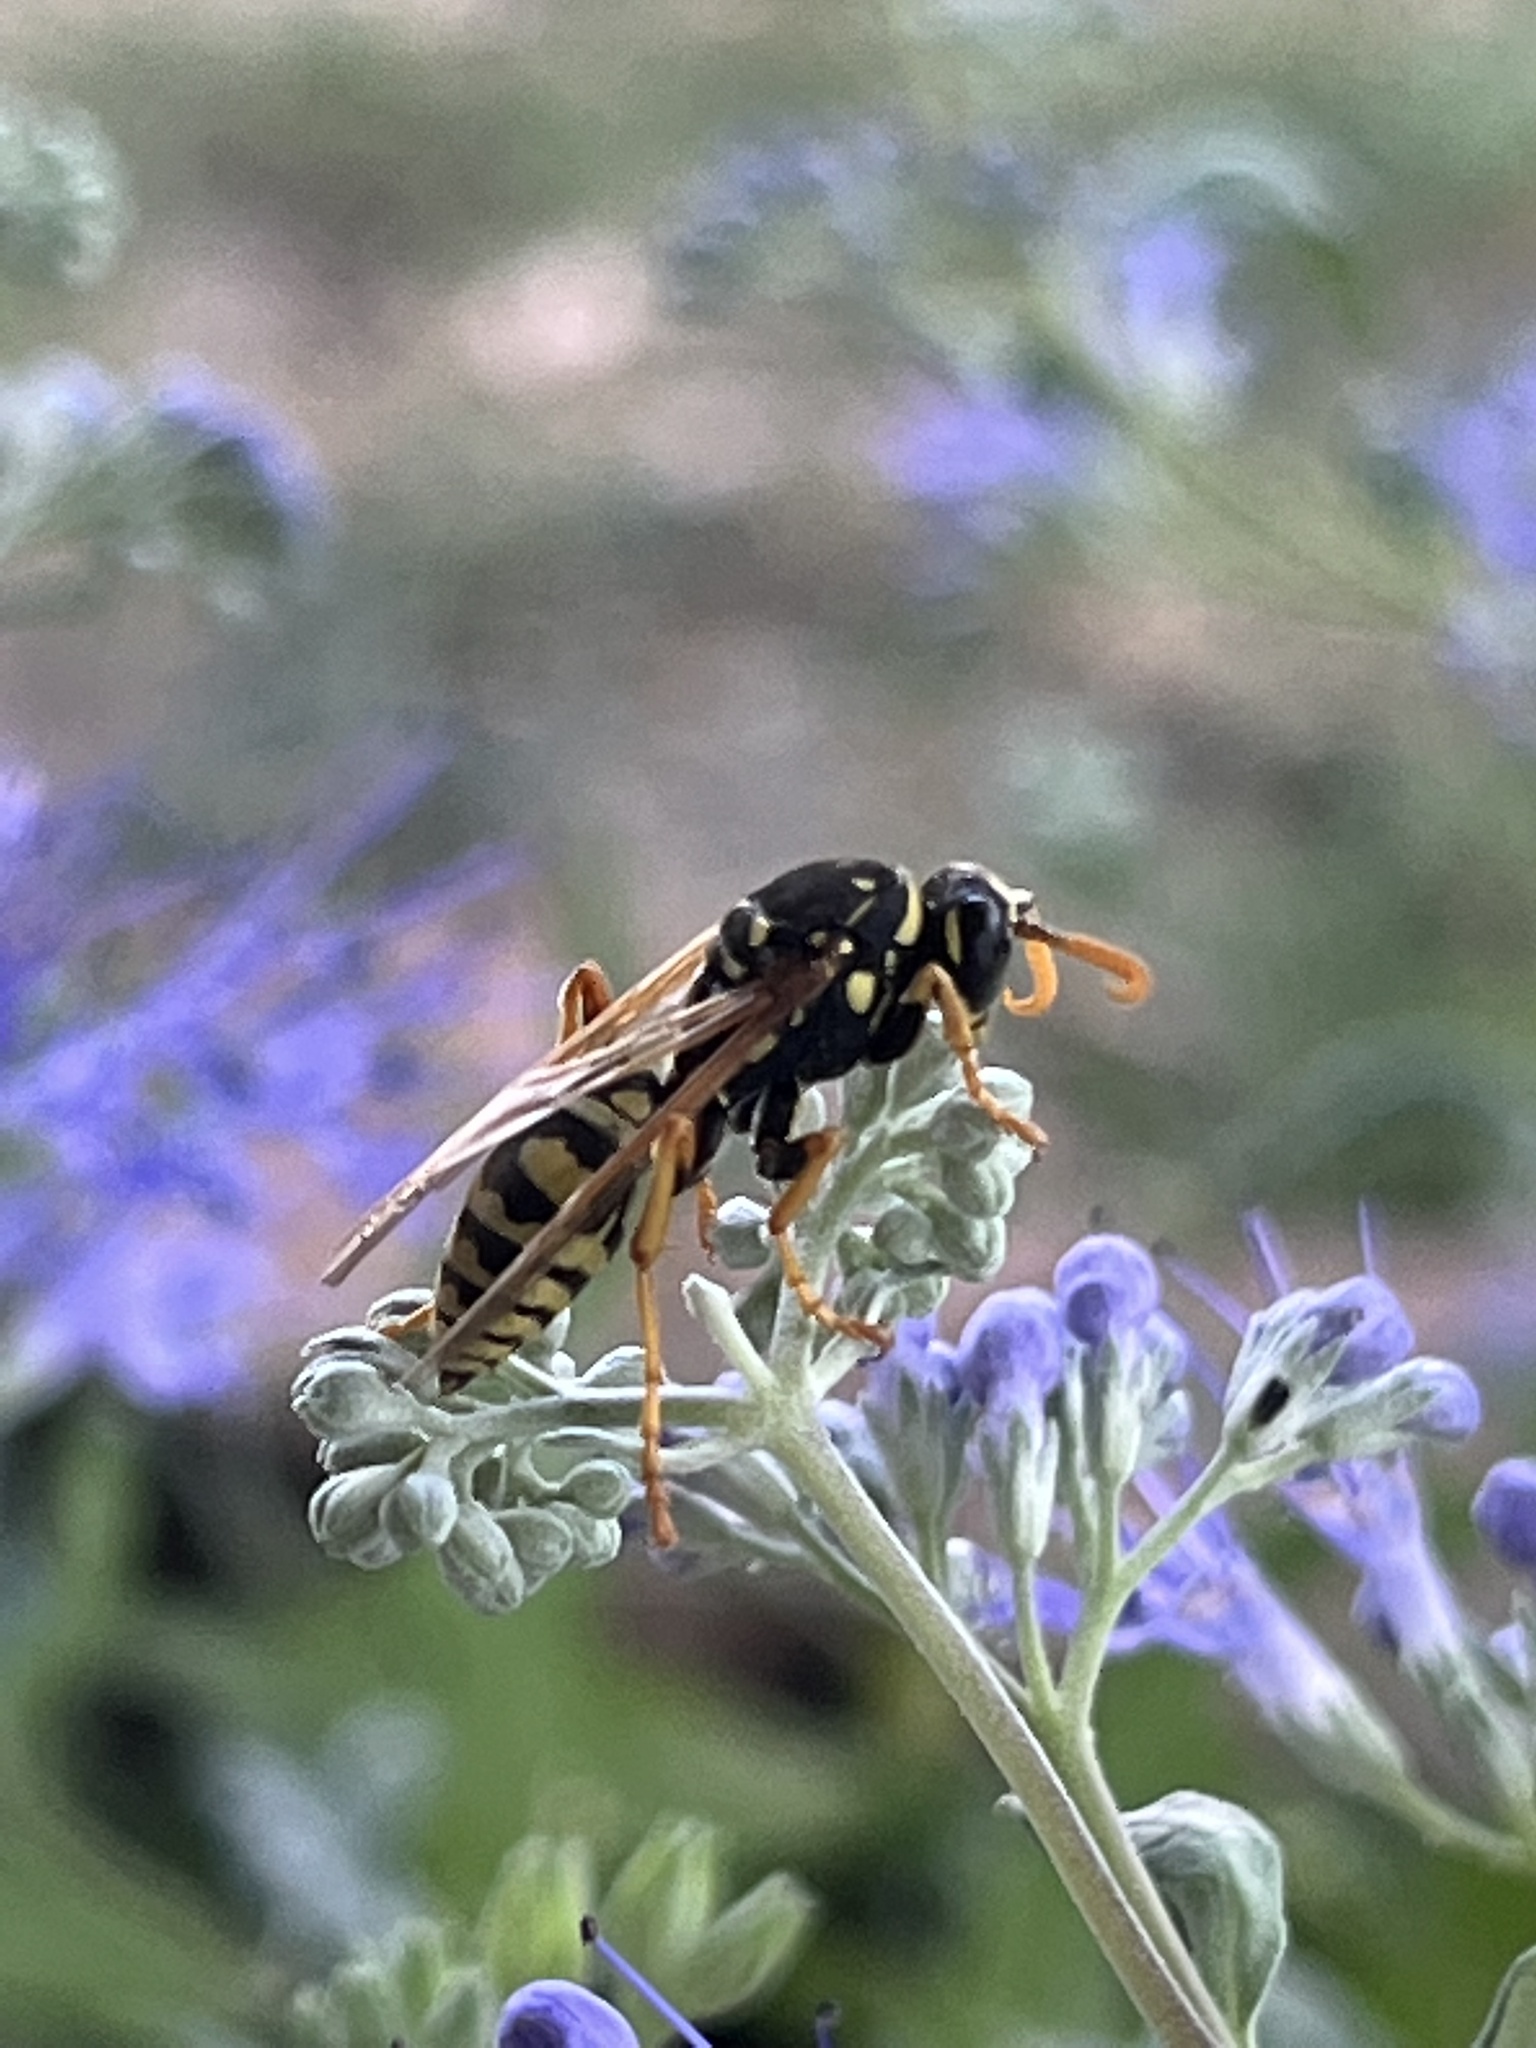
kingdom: Animalia
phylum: Arthropoda
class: Insecta
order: Hymenoptera
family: Eumenidae
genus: Polistes
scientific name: Polistes dominula
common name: Paper wasp
